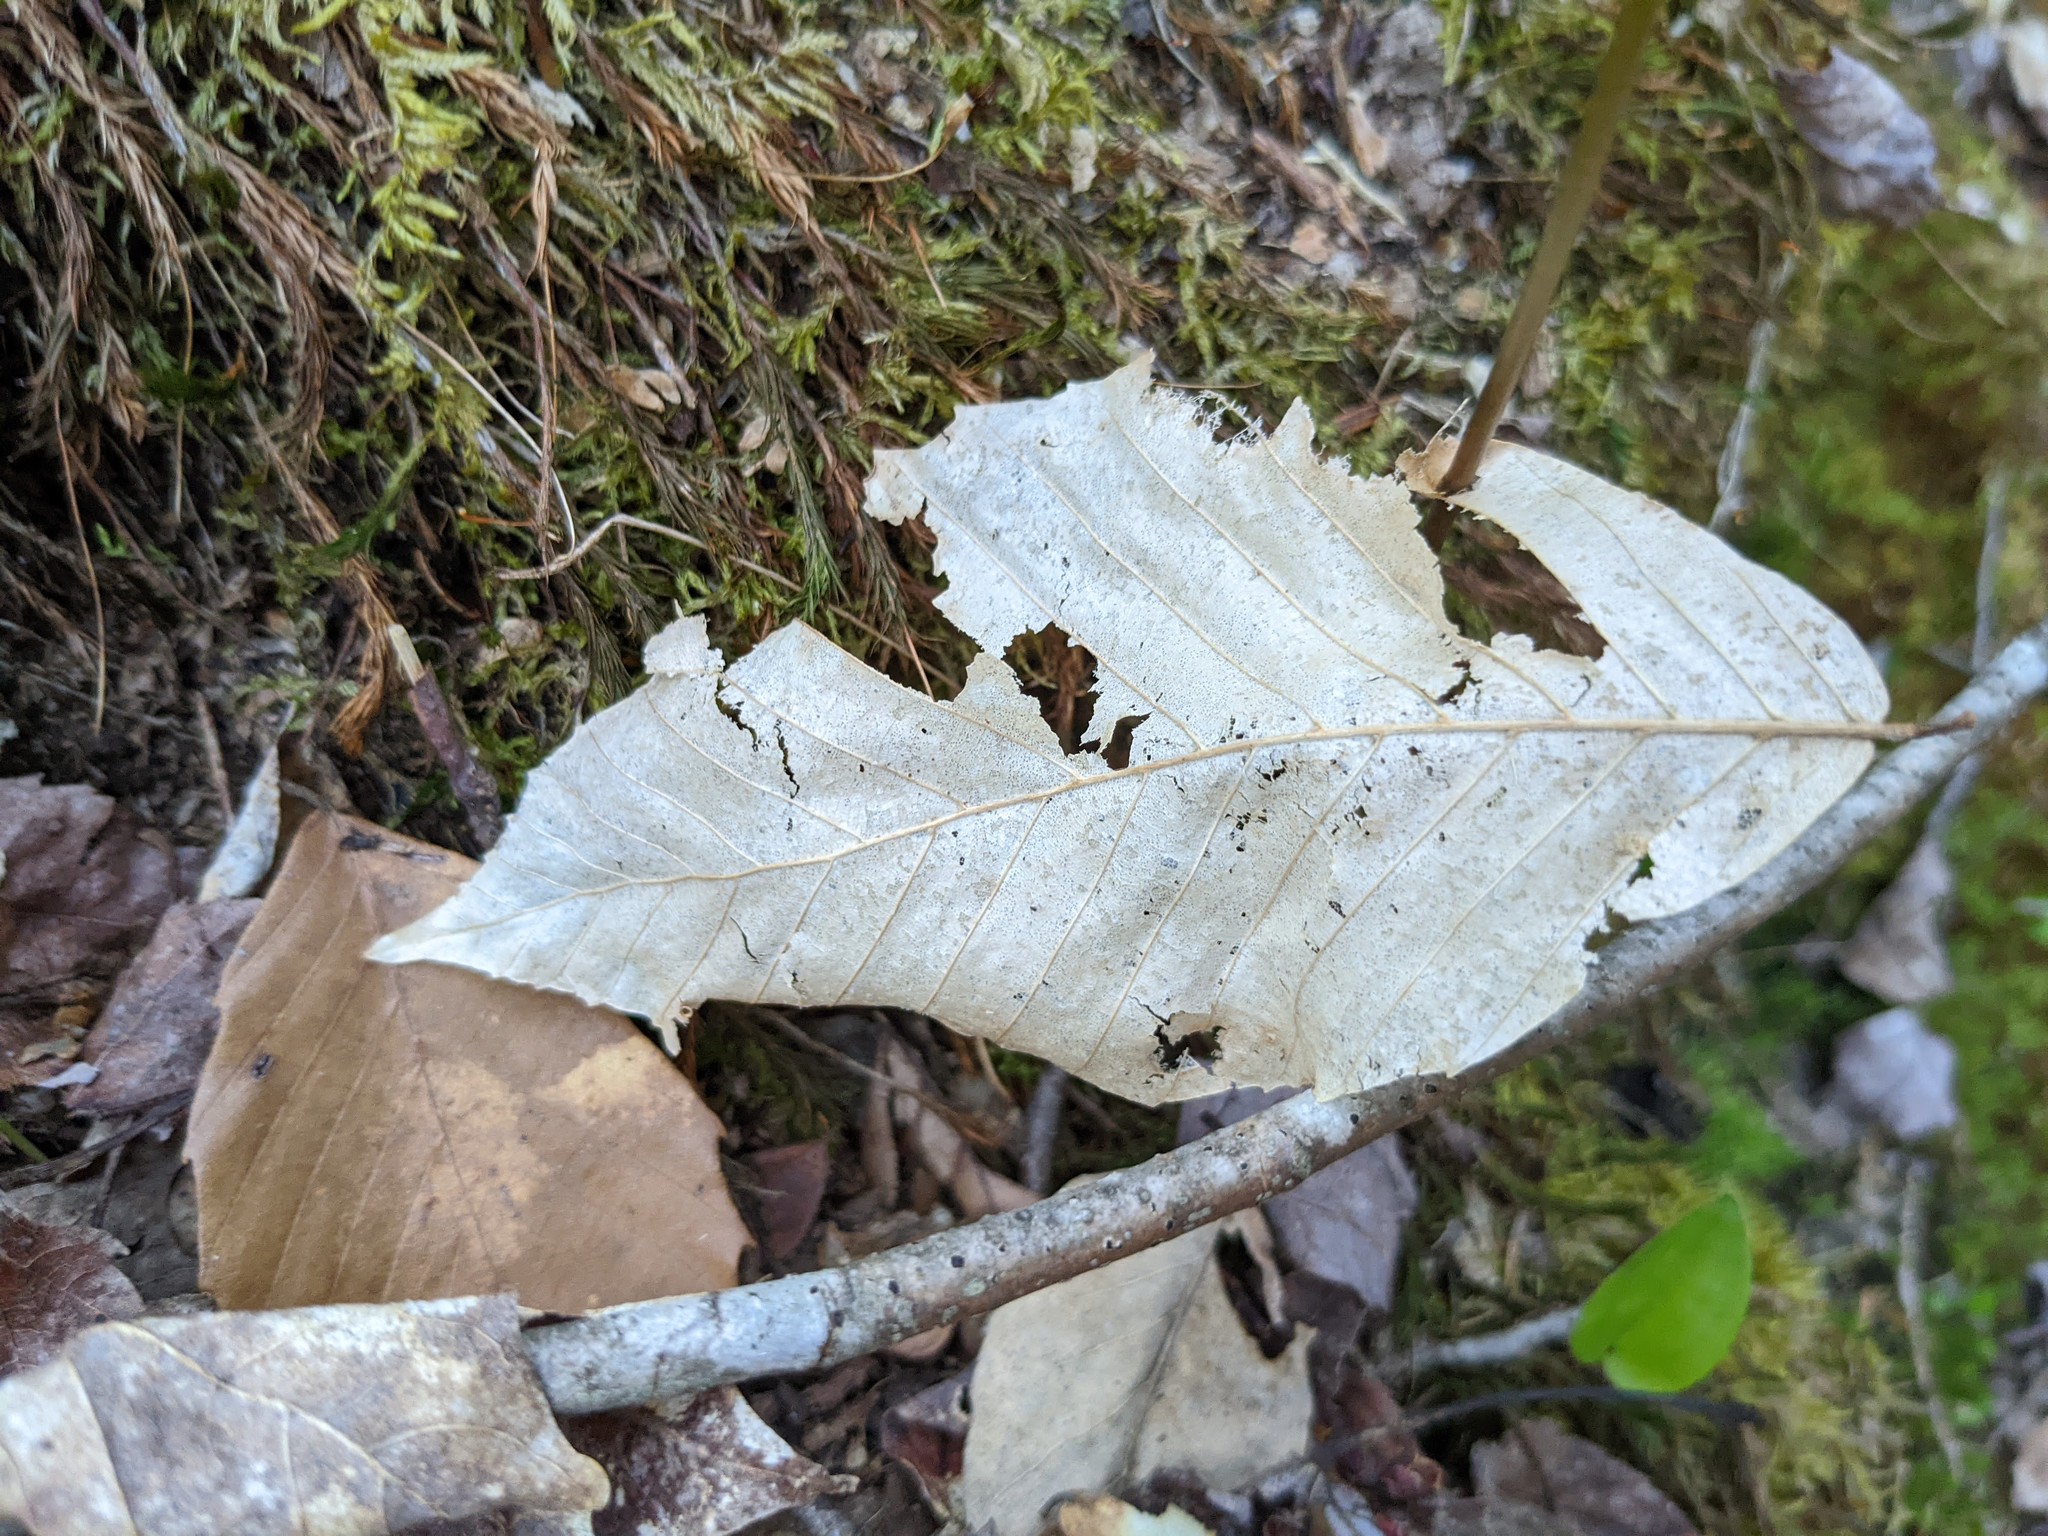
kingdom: Plantae
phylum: Tracheophyta
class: Magnoliopsida
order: Fagales
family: Fagaceae
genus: Fagus
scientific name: Fagus grandifolia
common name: American beech
